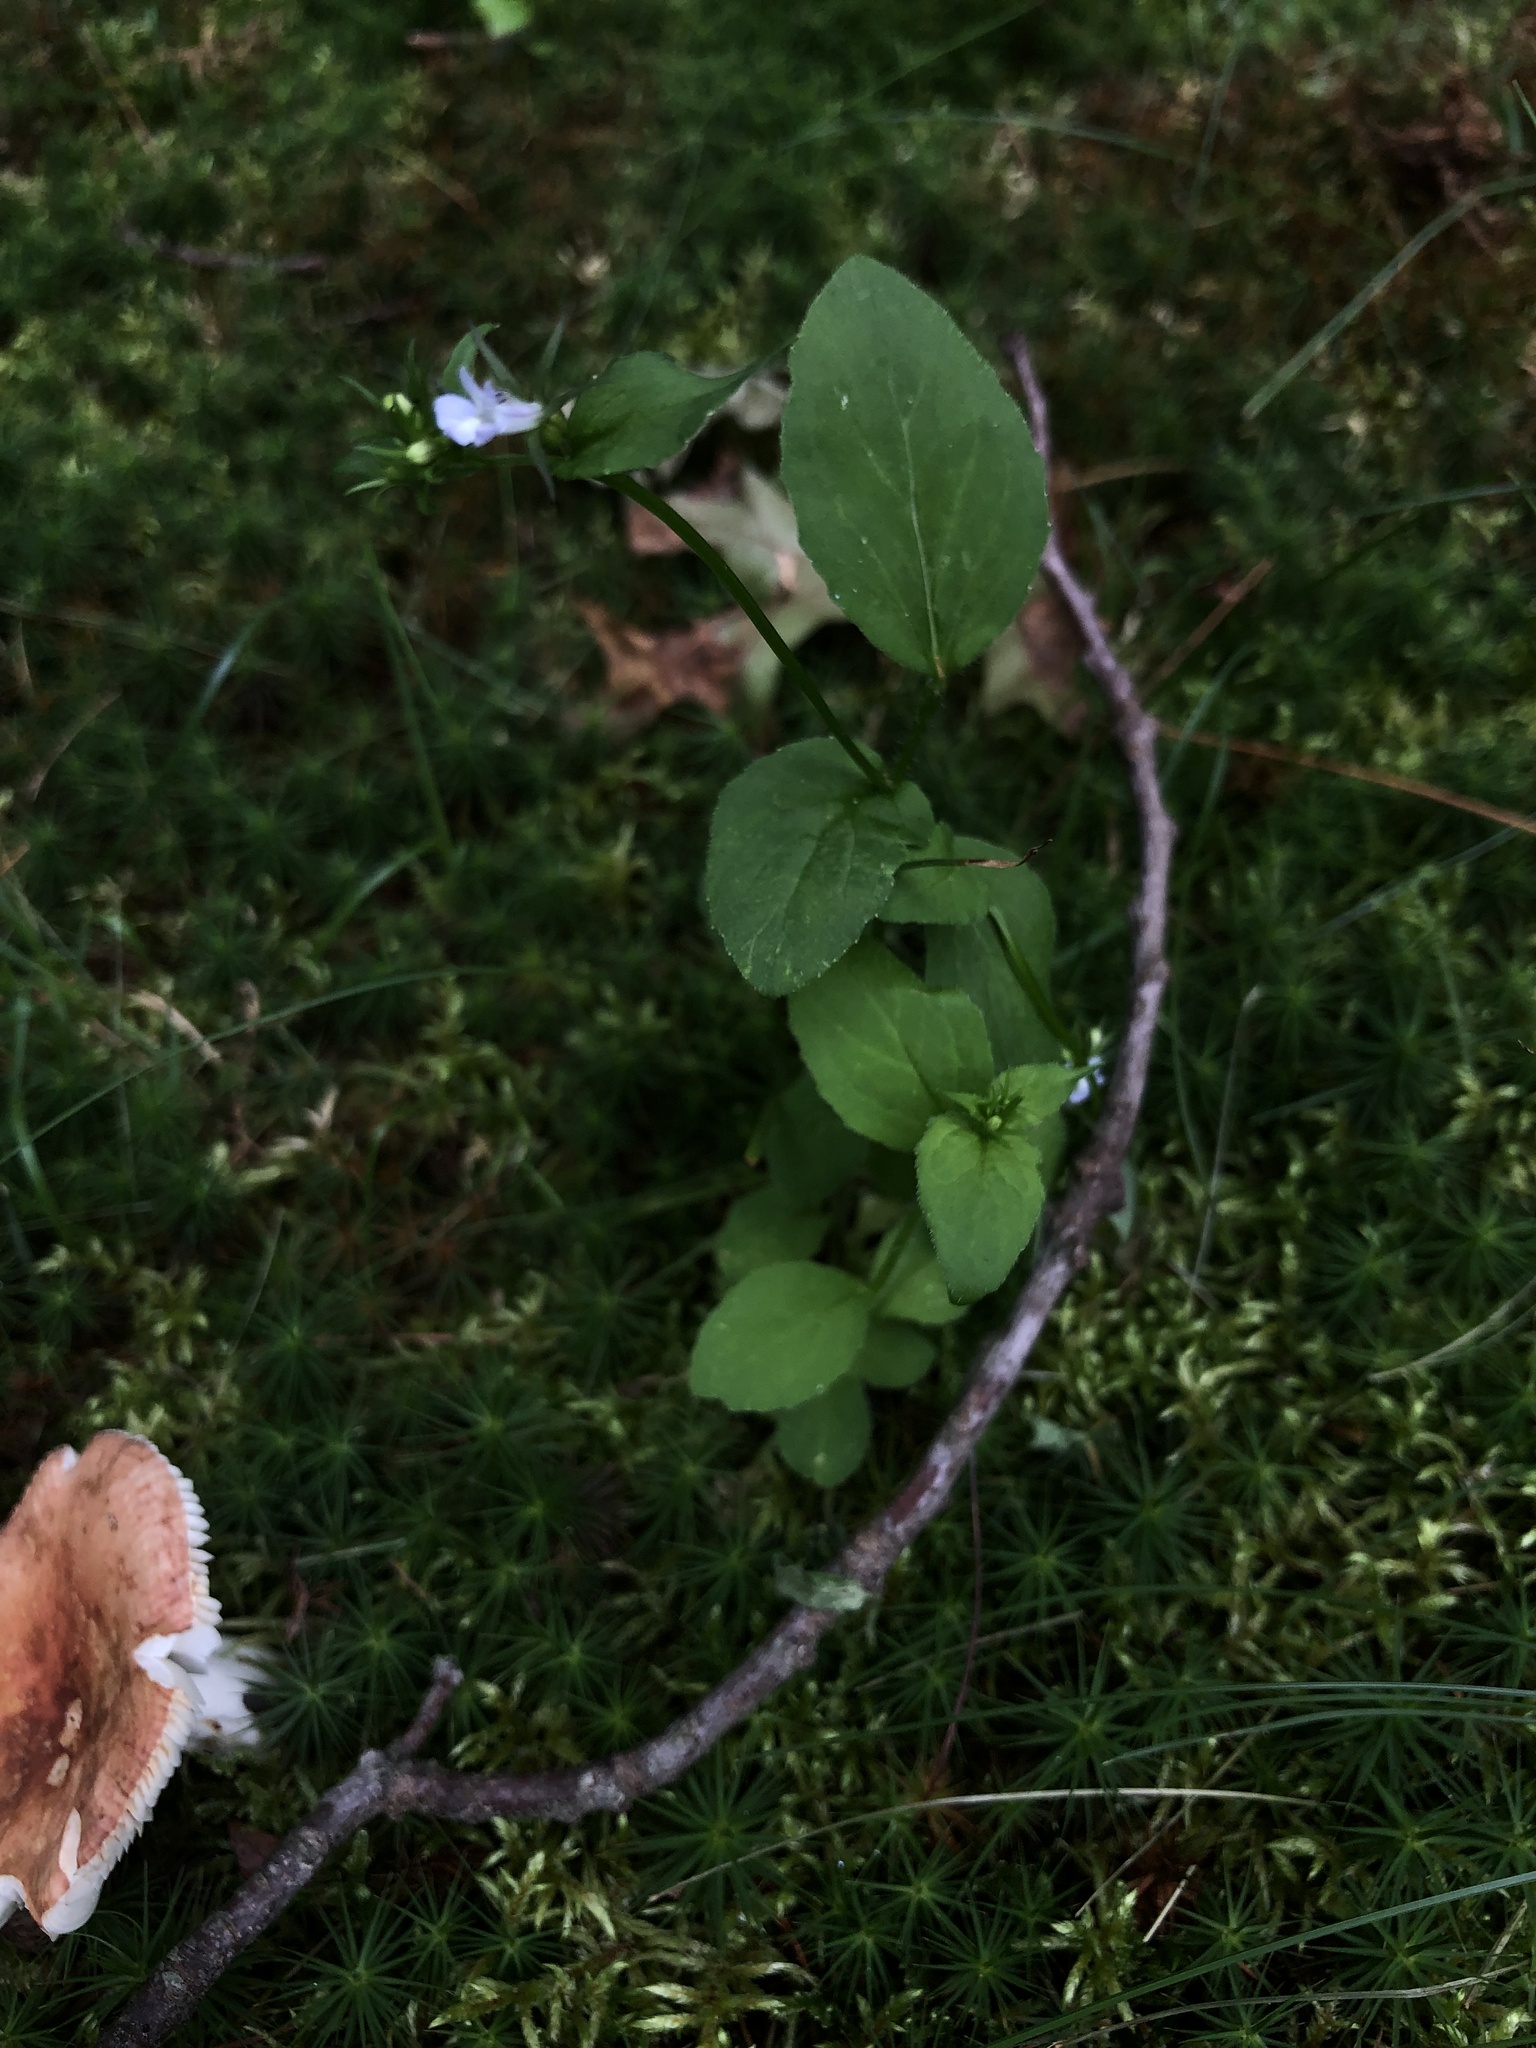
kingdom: Plantae
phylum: Tracheophyta
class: Magnoliopsida
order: Asterales
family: Campanulaceae
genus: Lobelia
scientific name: Lobelia inflata
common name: Indian tobacco
